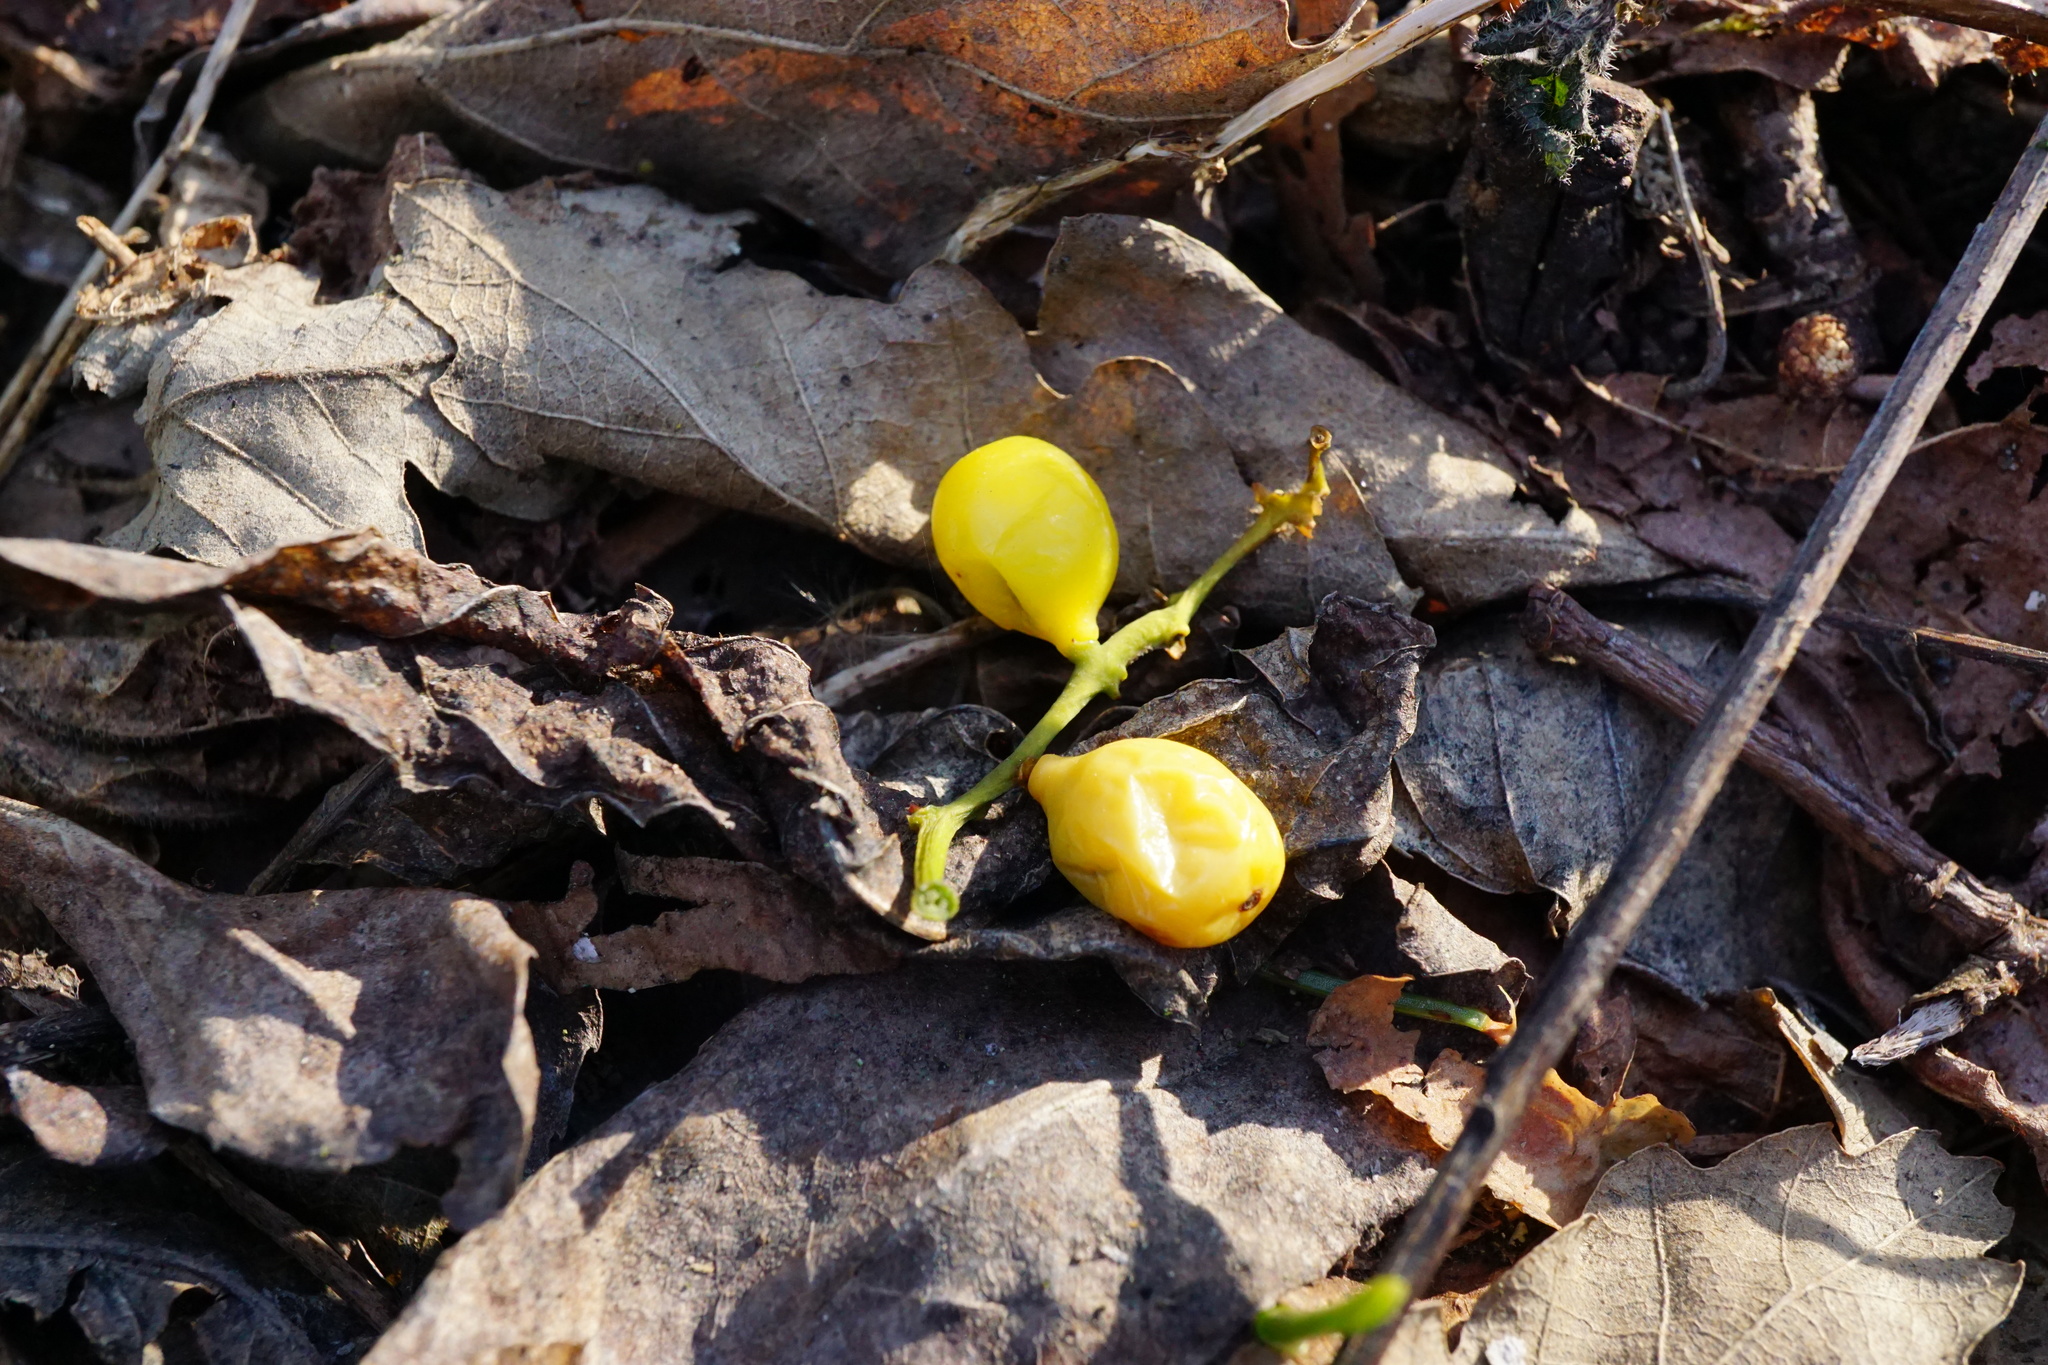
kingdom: Plantae
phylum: Tracheophyta
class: Magnoliopsida
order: Santalales
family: Loranthaceae
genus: Loranthus
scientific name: Loranthus europaeus
